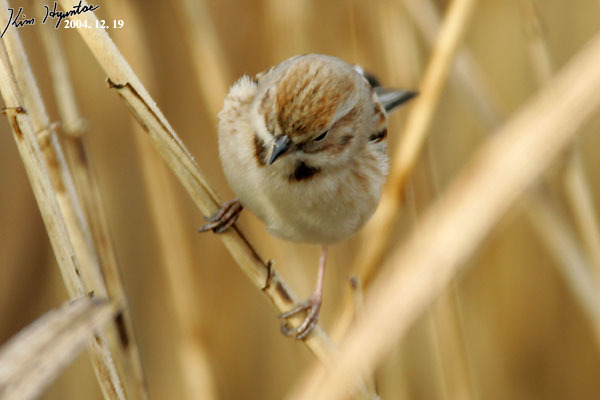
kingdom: Animalia
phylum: Chordata
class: Aves
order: Passeriformes
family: Emberizidae
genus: Emberiza
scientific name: Emberiza pallasi
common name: Pallas's reed bunting
